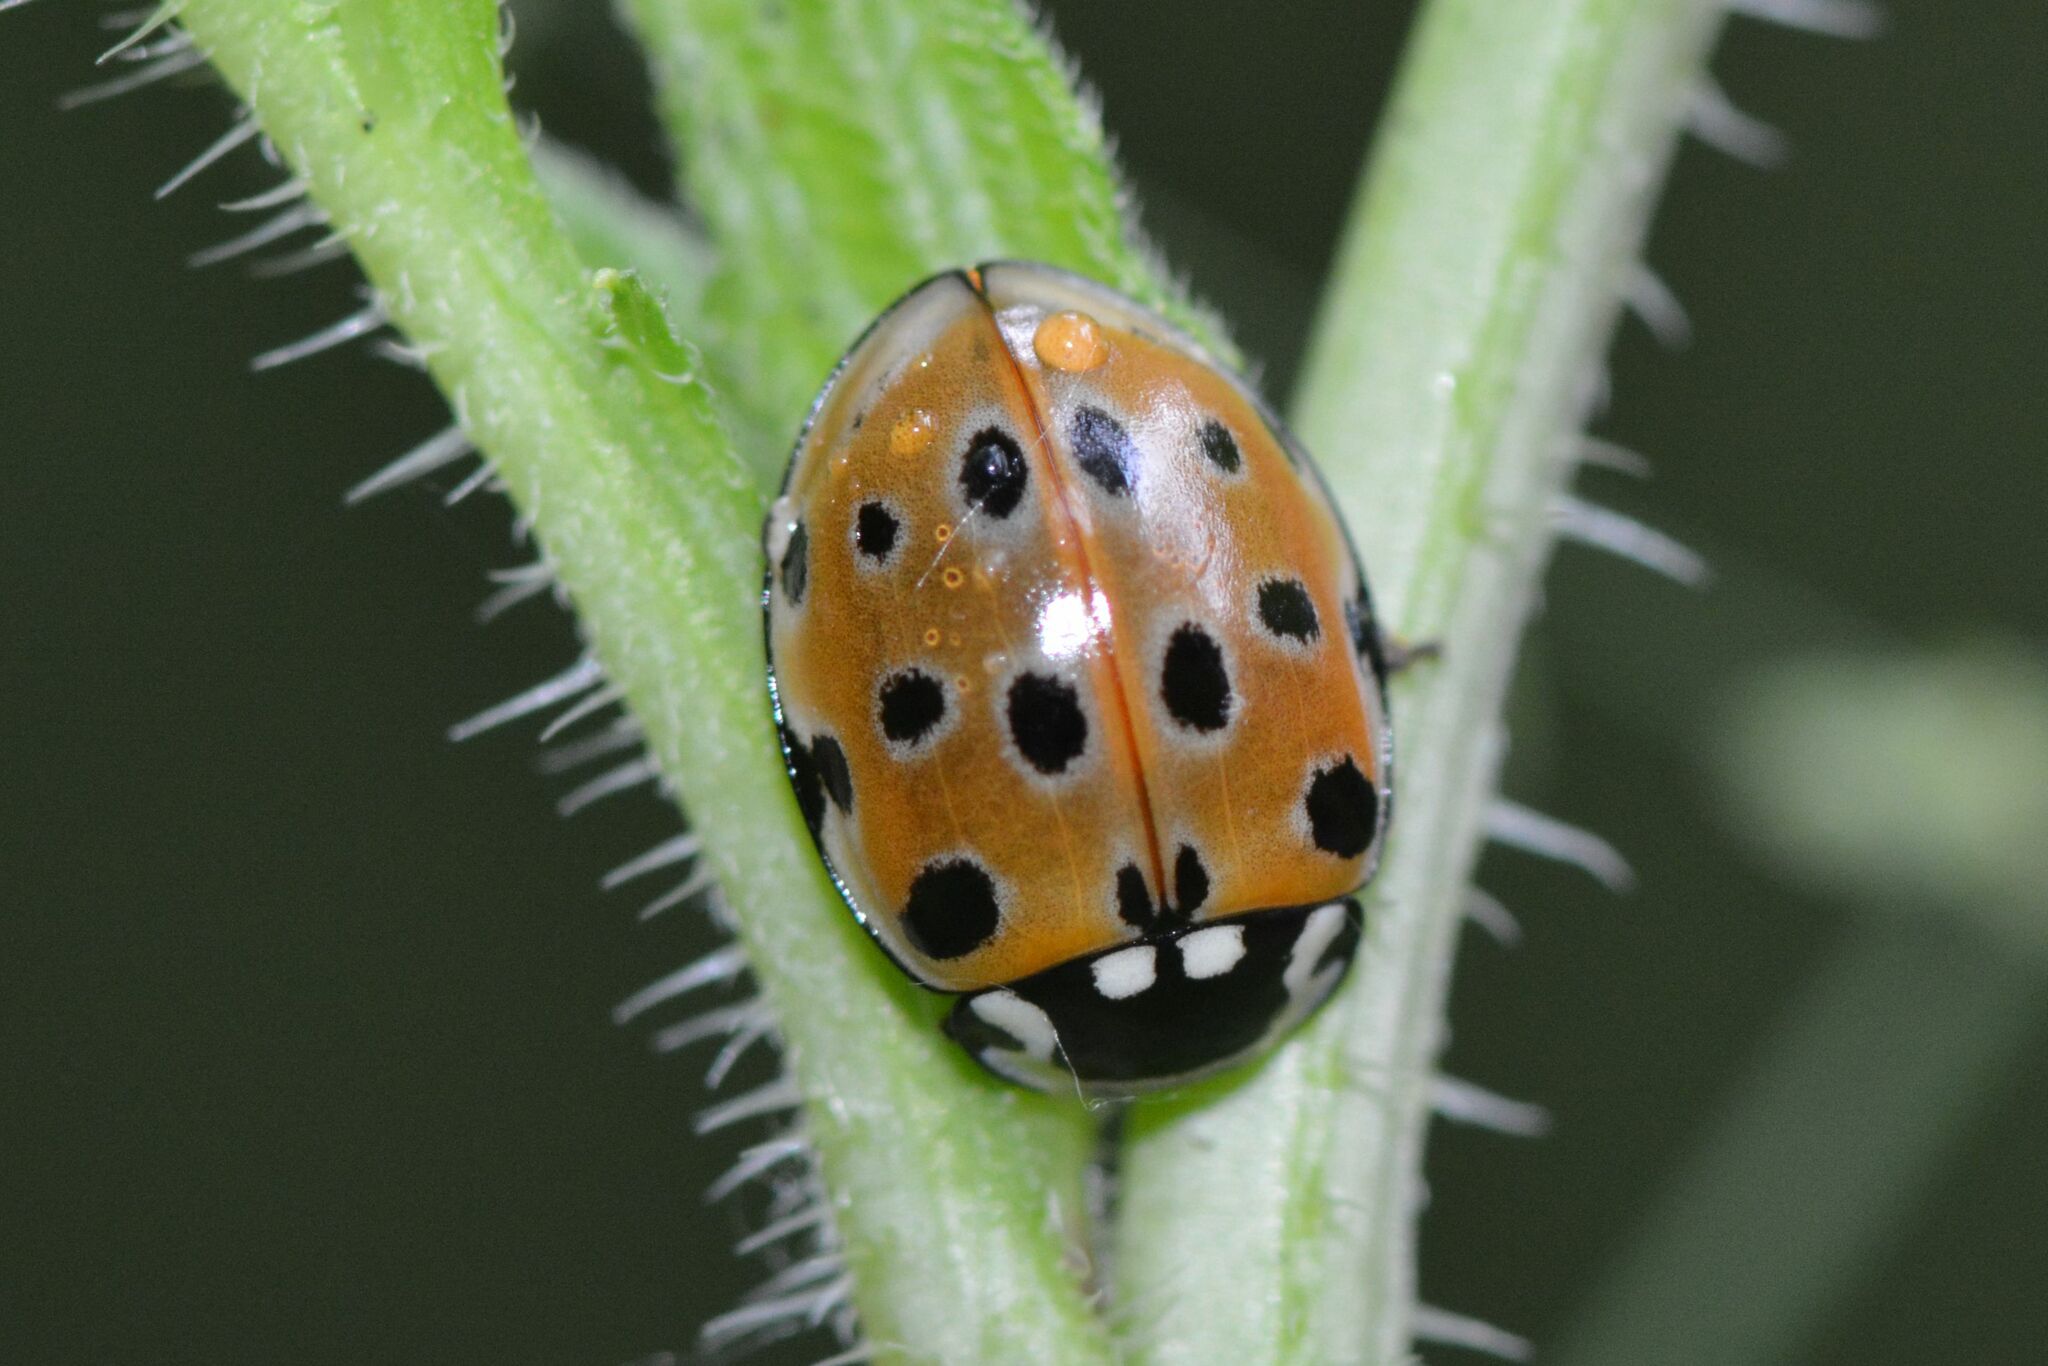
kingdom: Animalia
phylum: Arthropoda
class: Insecta
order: Coleoptera
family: Coccinellidae
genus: Anatis
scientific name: Anatis ocellata
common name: Eyed ladybird
